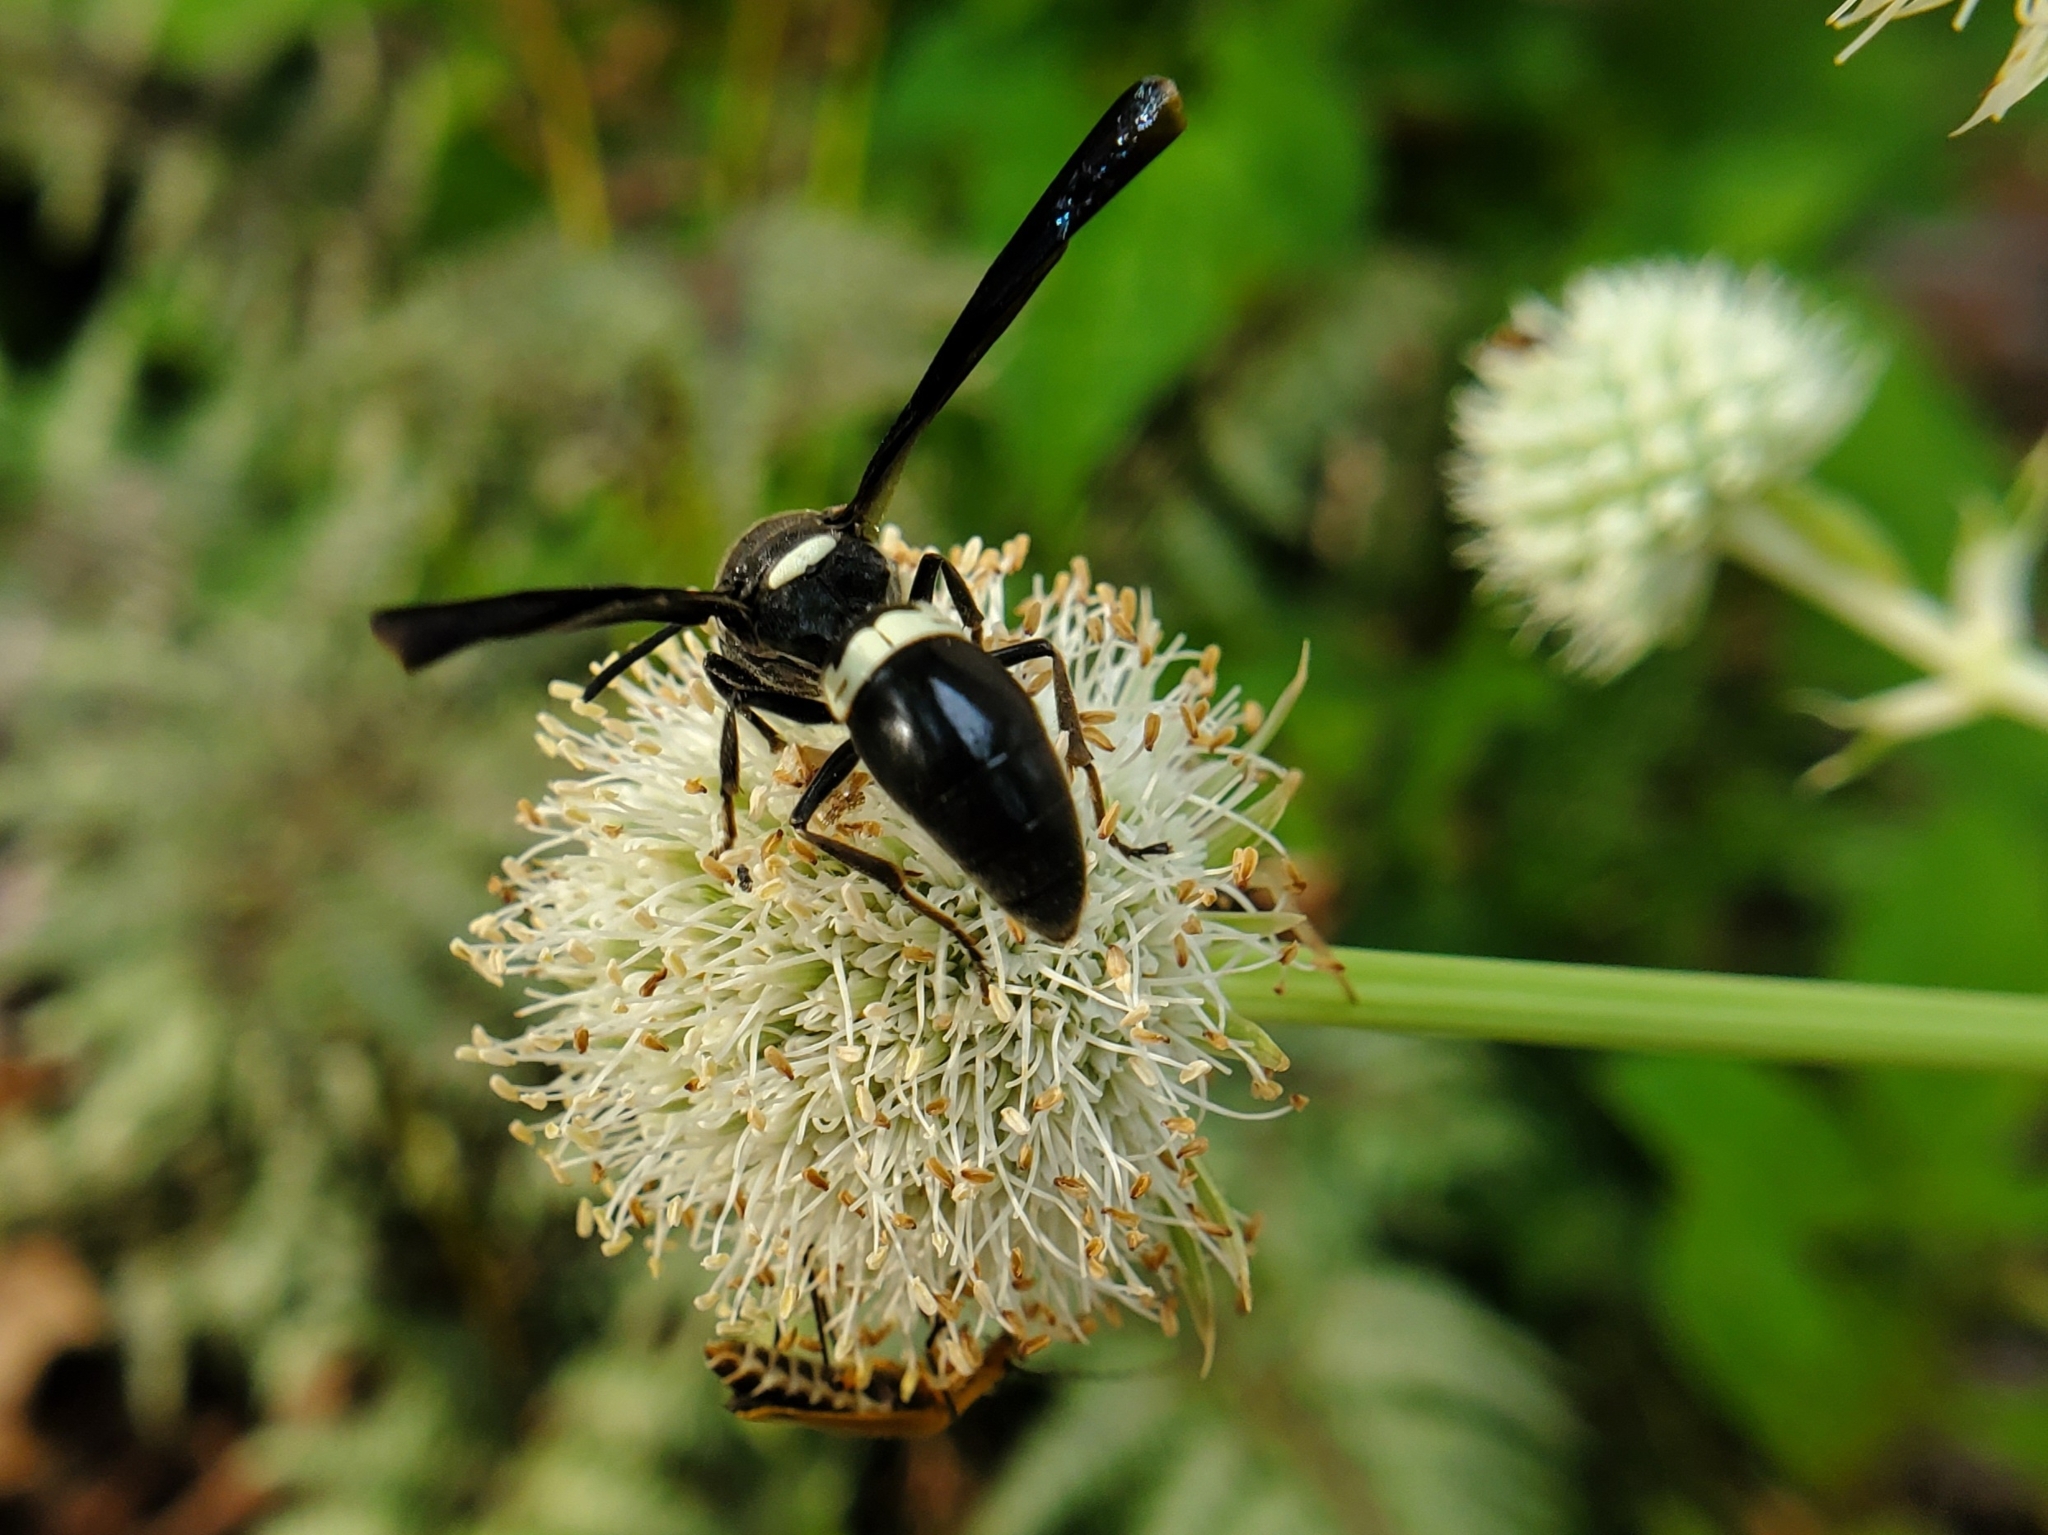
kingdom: Animalia
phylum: Arthropoda
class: Insecta
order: Hymenoptera
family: Eumenidae
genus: Monobia
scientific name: Monobia quadridens
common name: Four-toothed mason wasp
